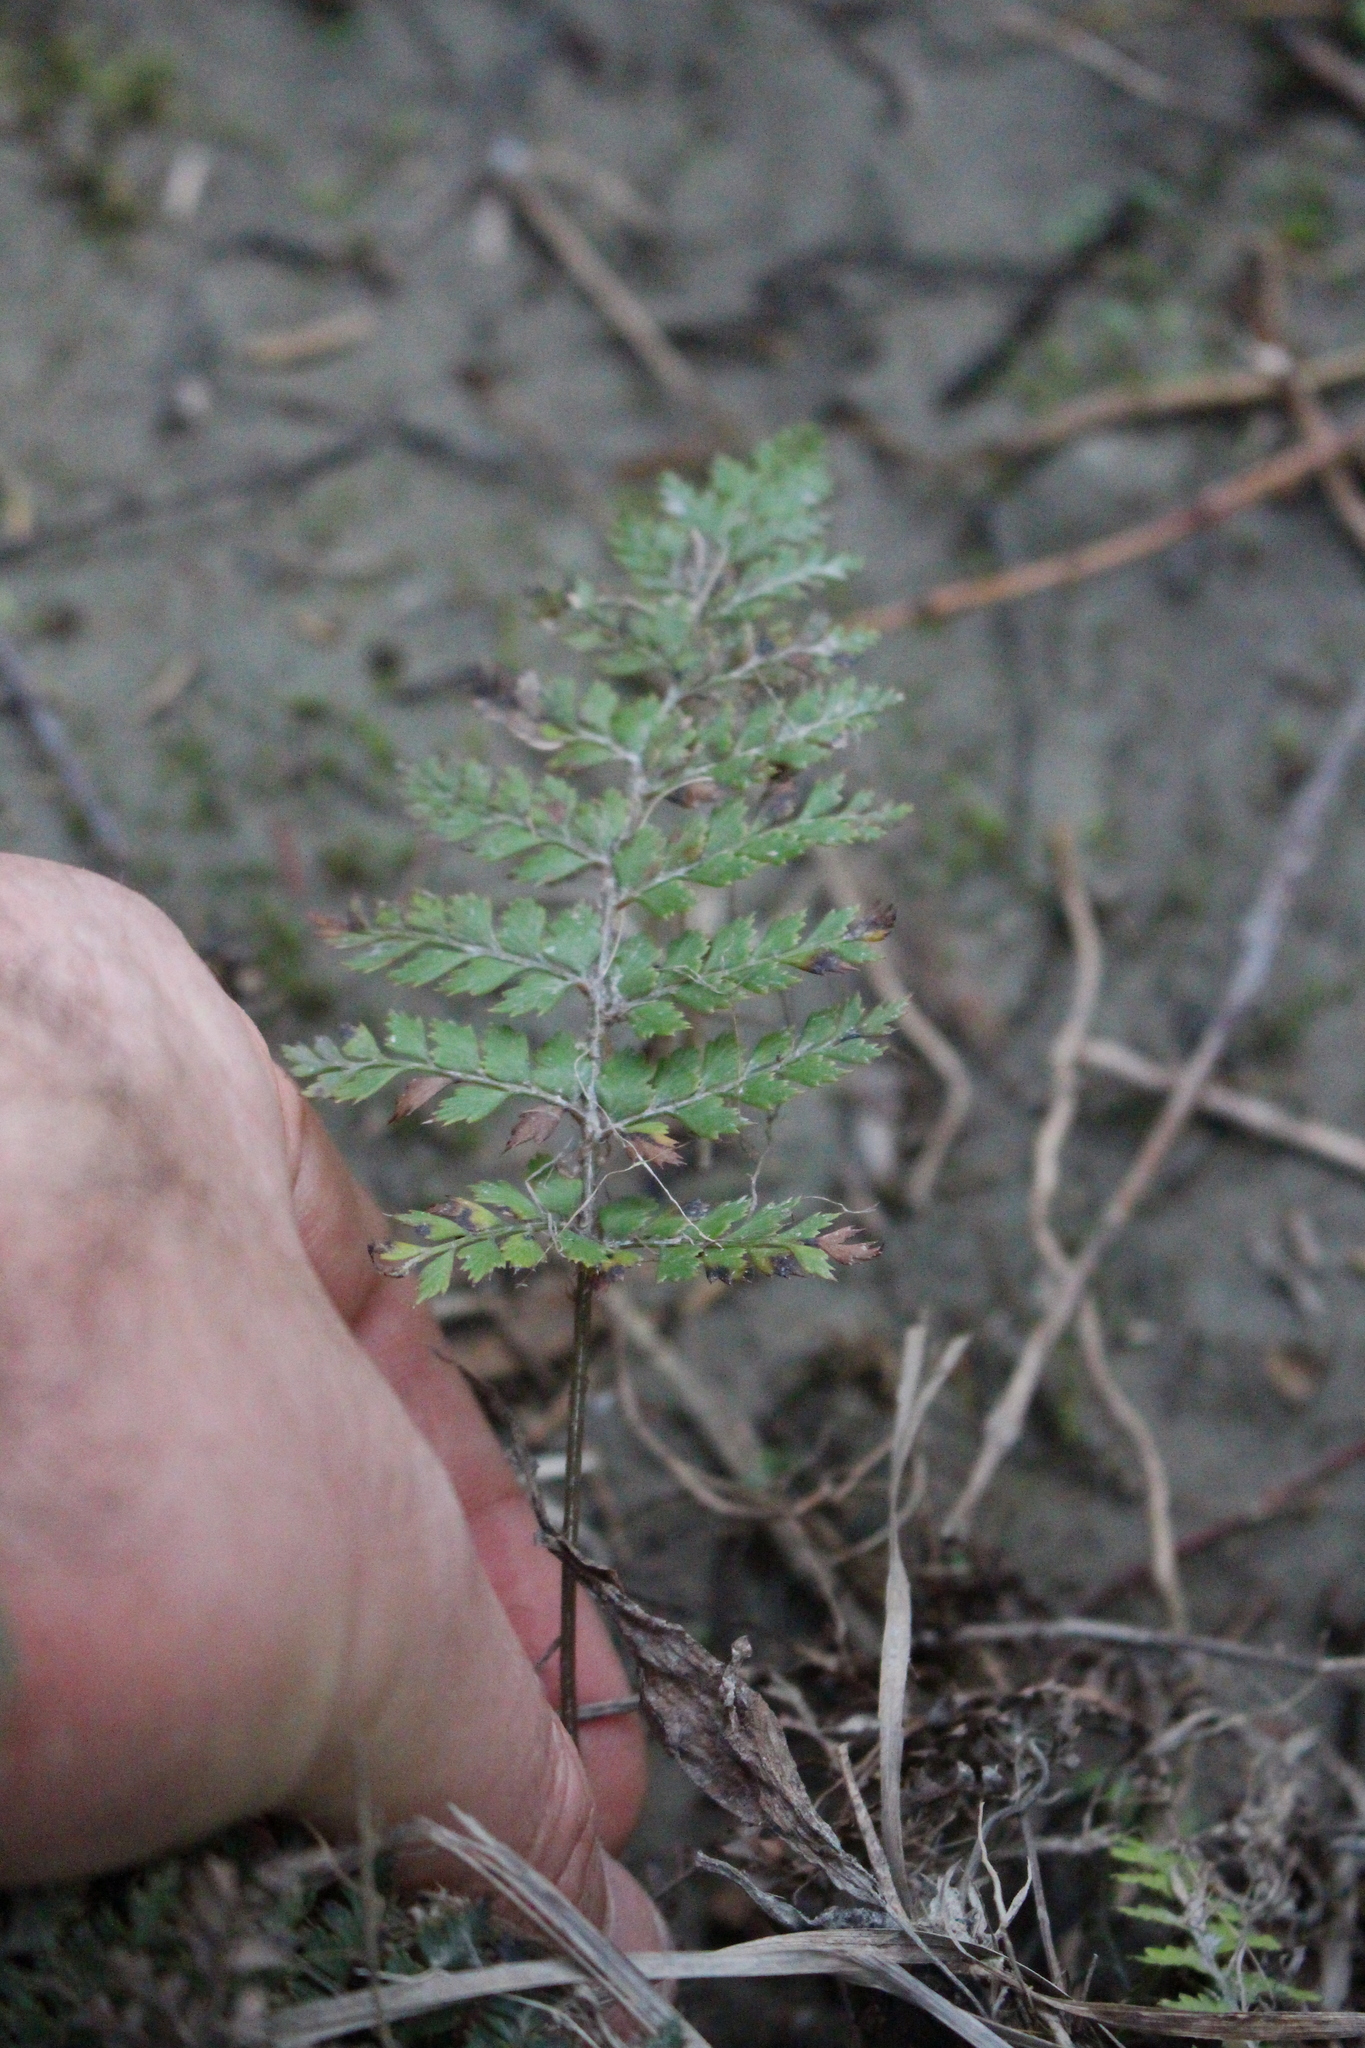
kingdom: Plantae
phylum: Tracheophyta
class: Polypodiopsida
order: Polypodiales
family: Dryopteridaceae
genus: Polystichum
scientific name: Polystichum vestitum
